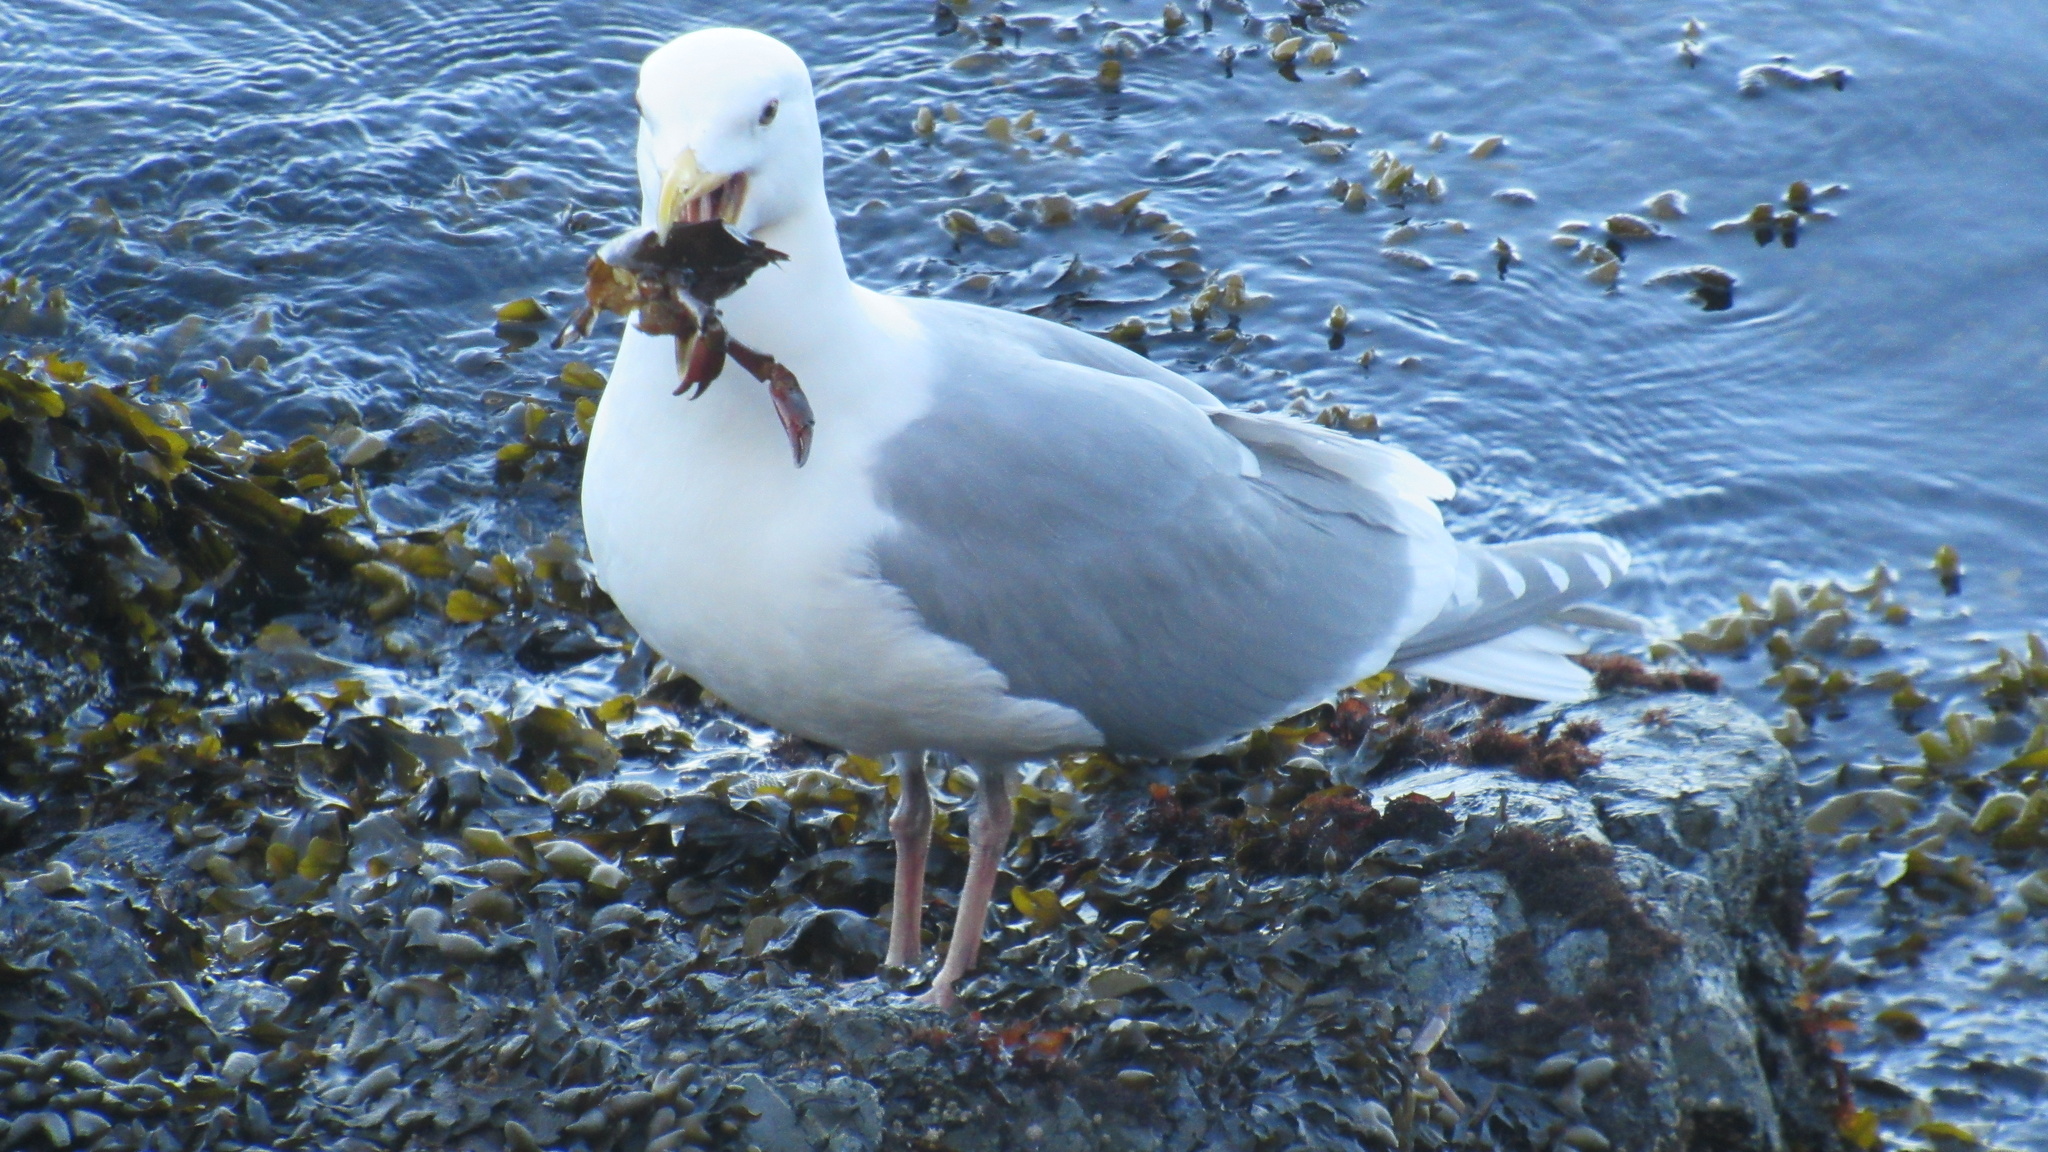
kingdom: Animalia
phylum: Chordata
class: Aves
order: Charadriiformes
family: Laridae
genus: Larus
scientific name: Larus glaucescens
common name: Glaucous-winged gull
